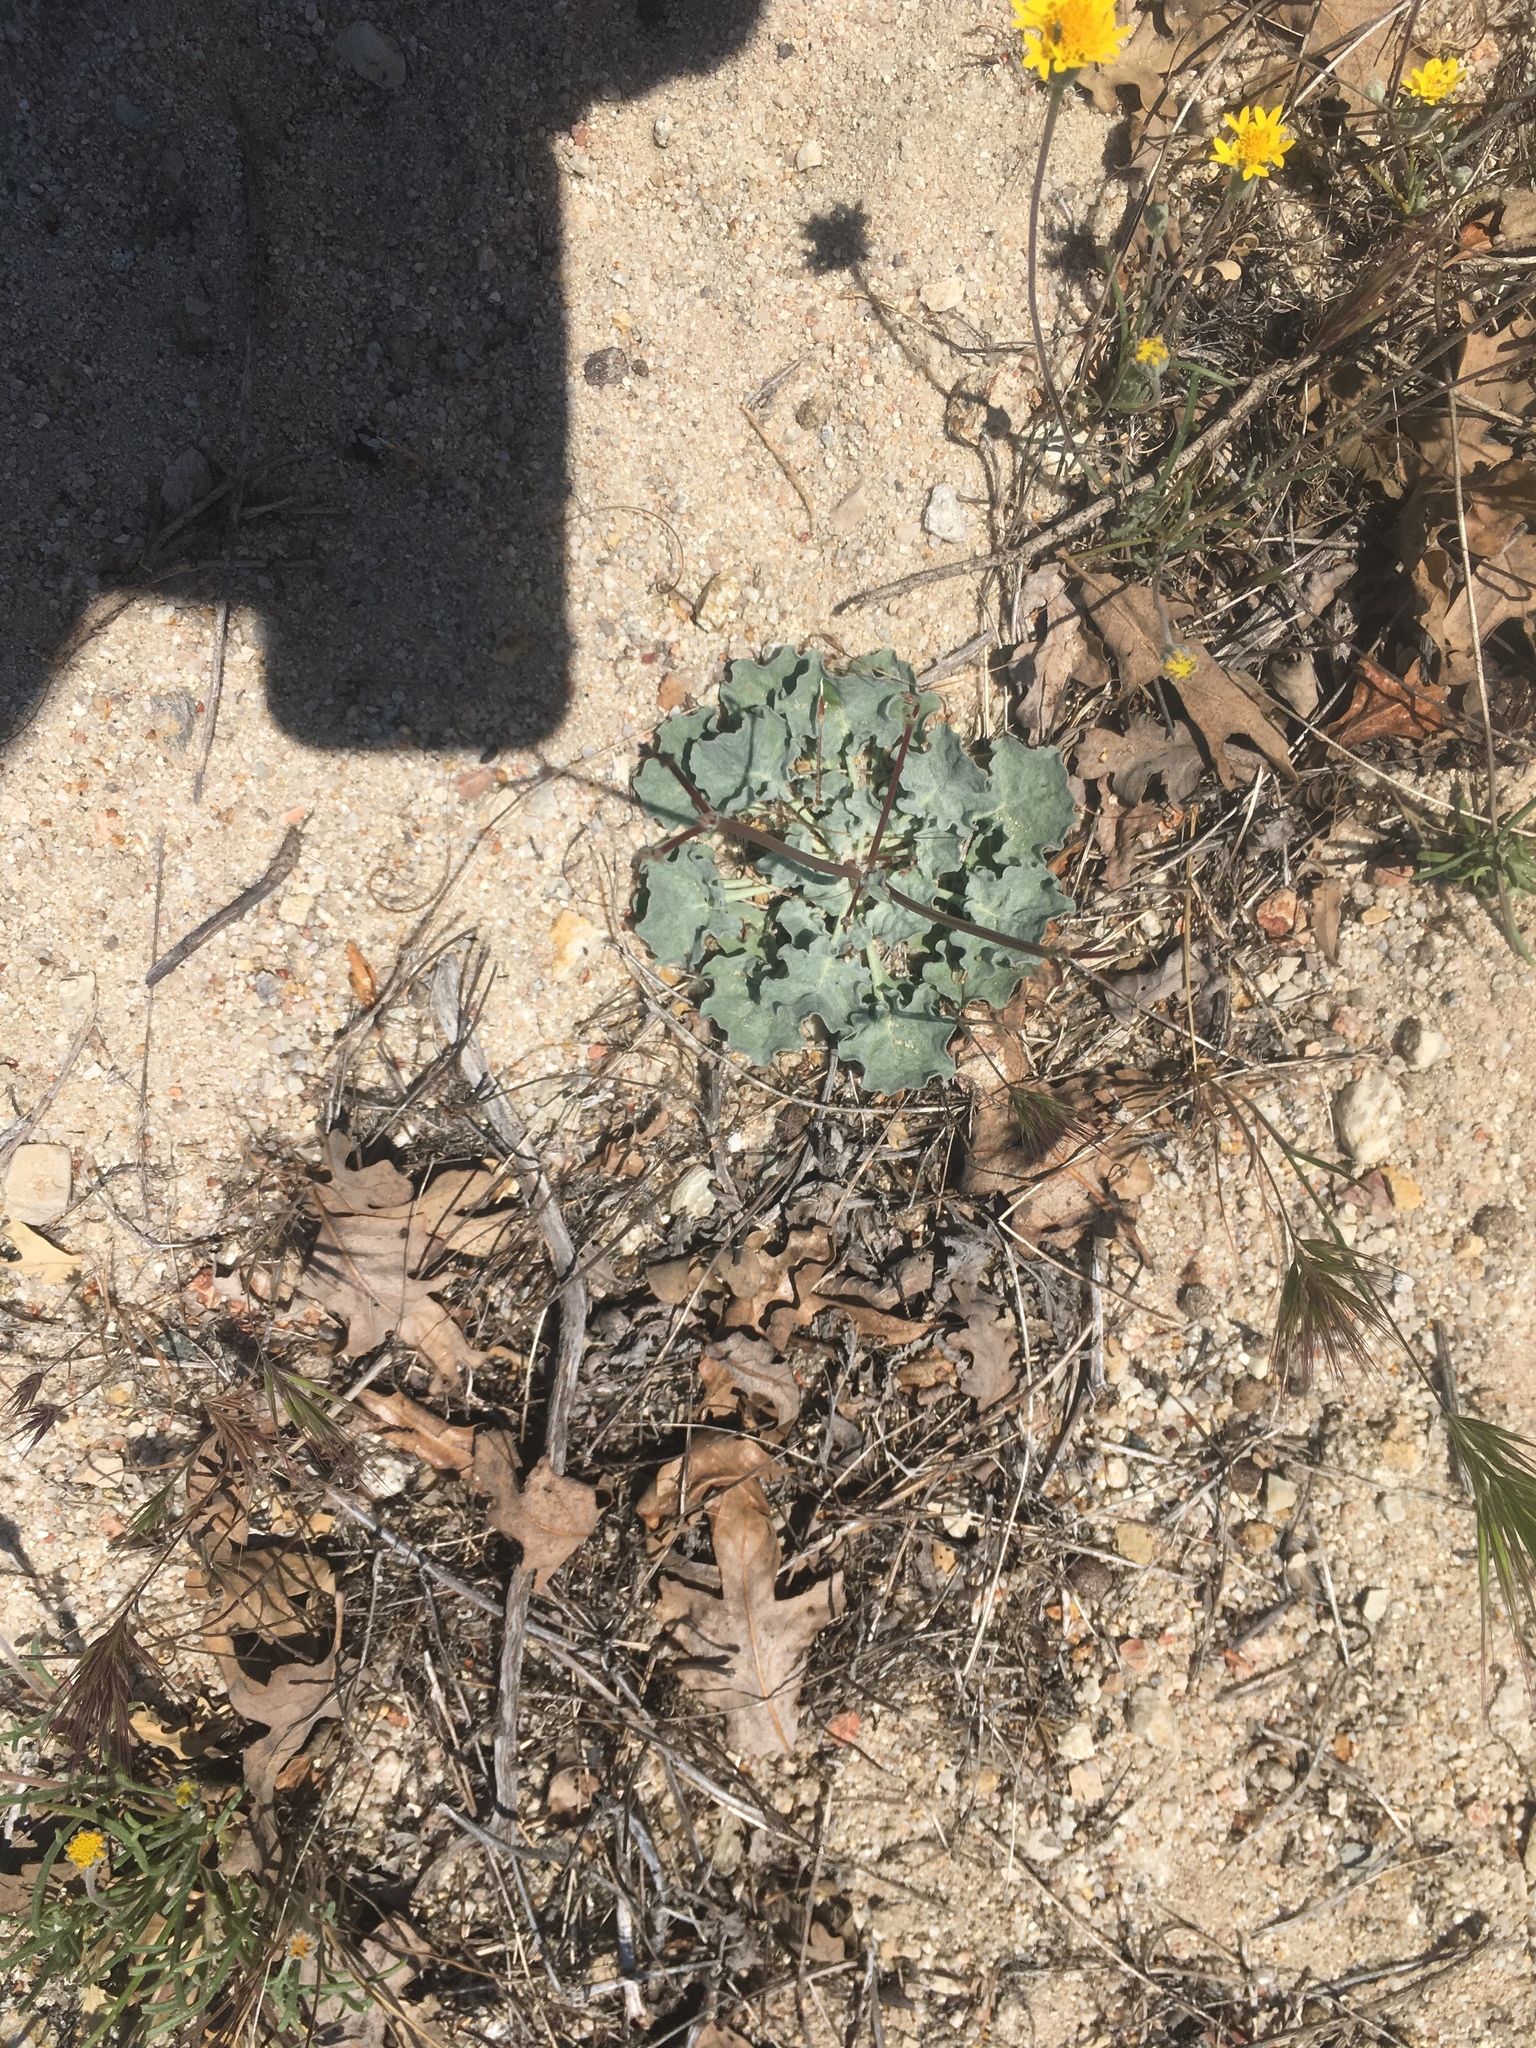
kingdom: Plantae
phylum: Tracheophyta
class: Magnoliopsida
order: Caryophyllales
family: Polygonaceae
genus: Eriogonum
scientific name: Eriogonum elegans
